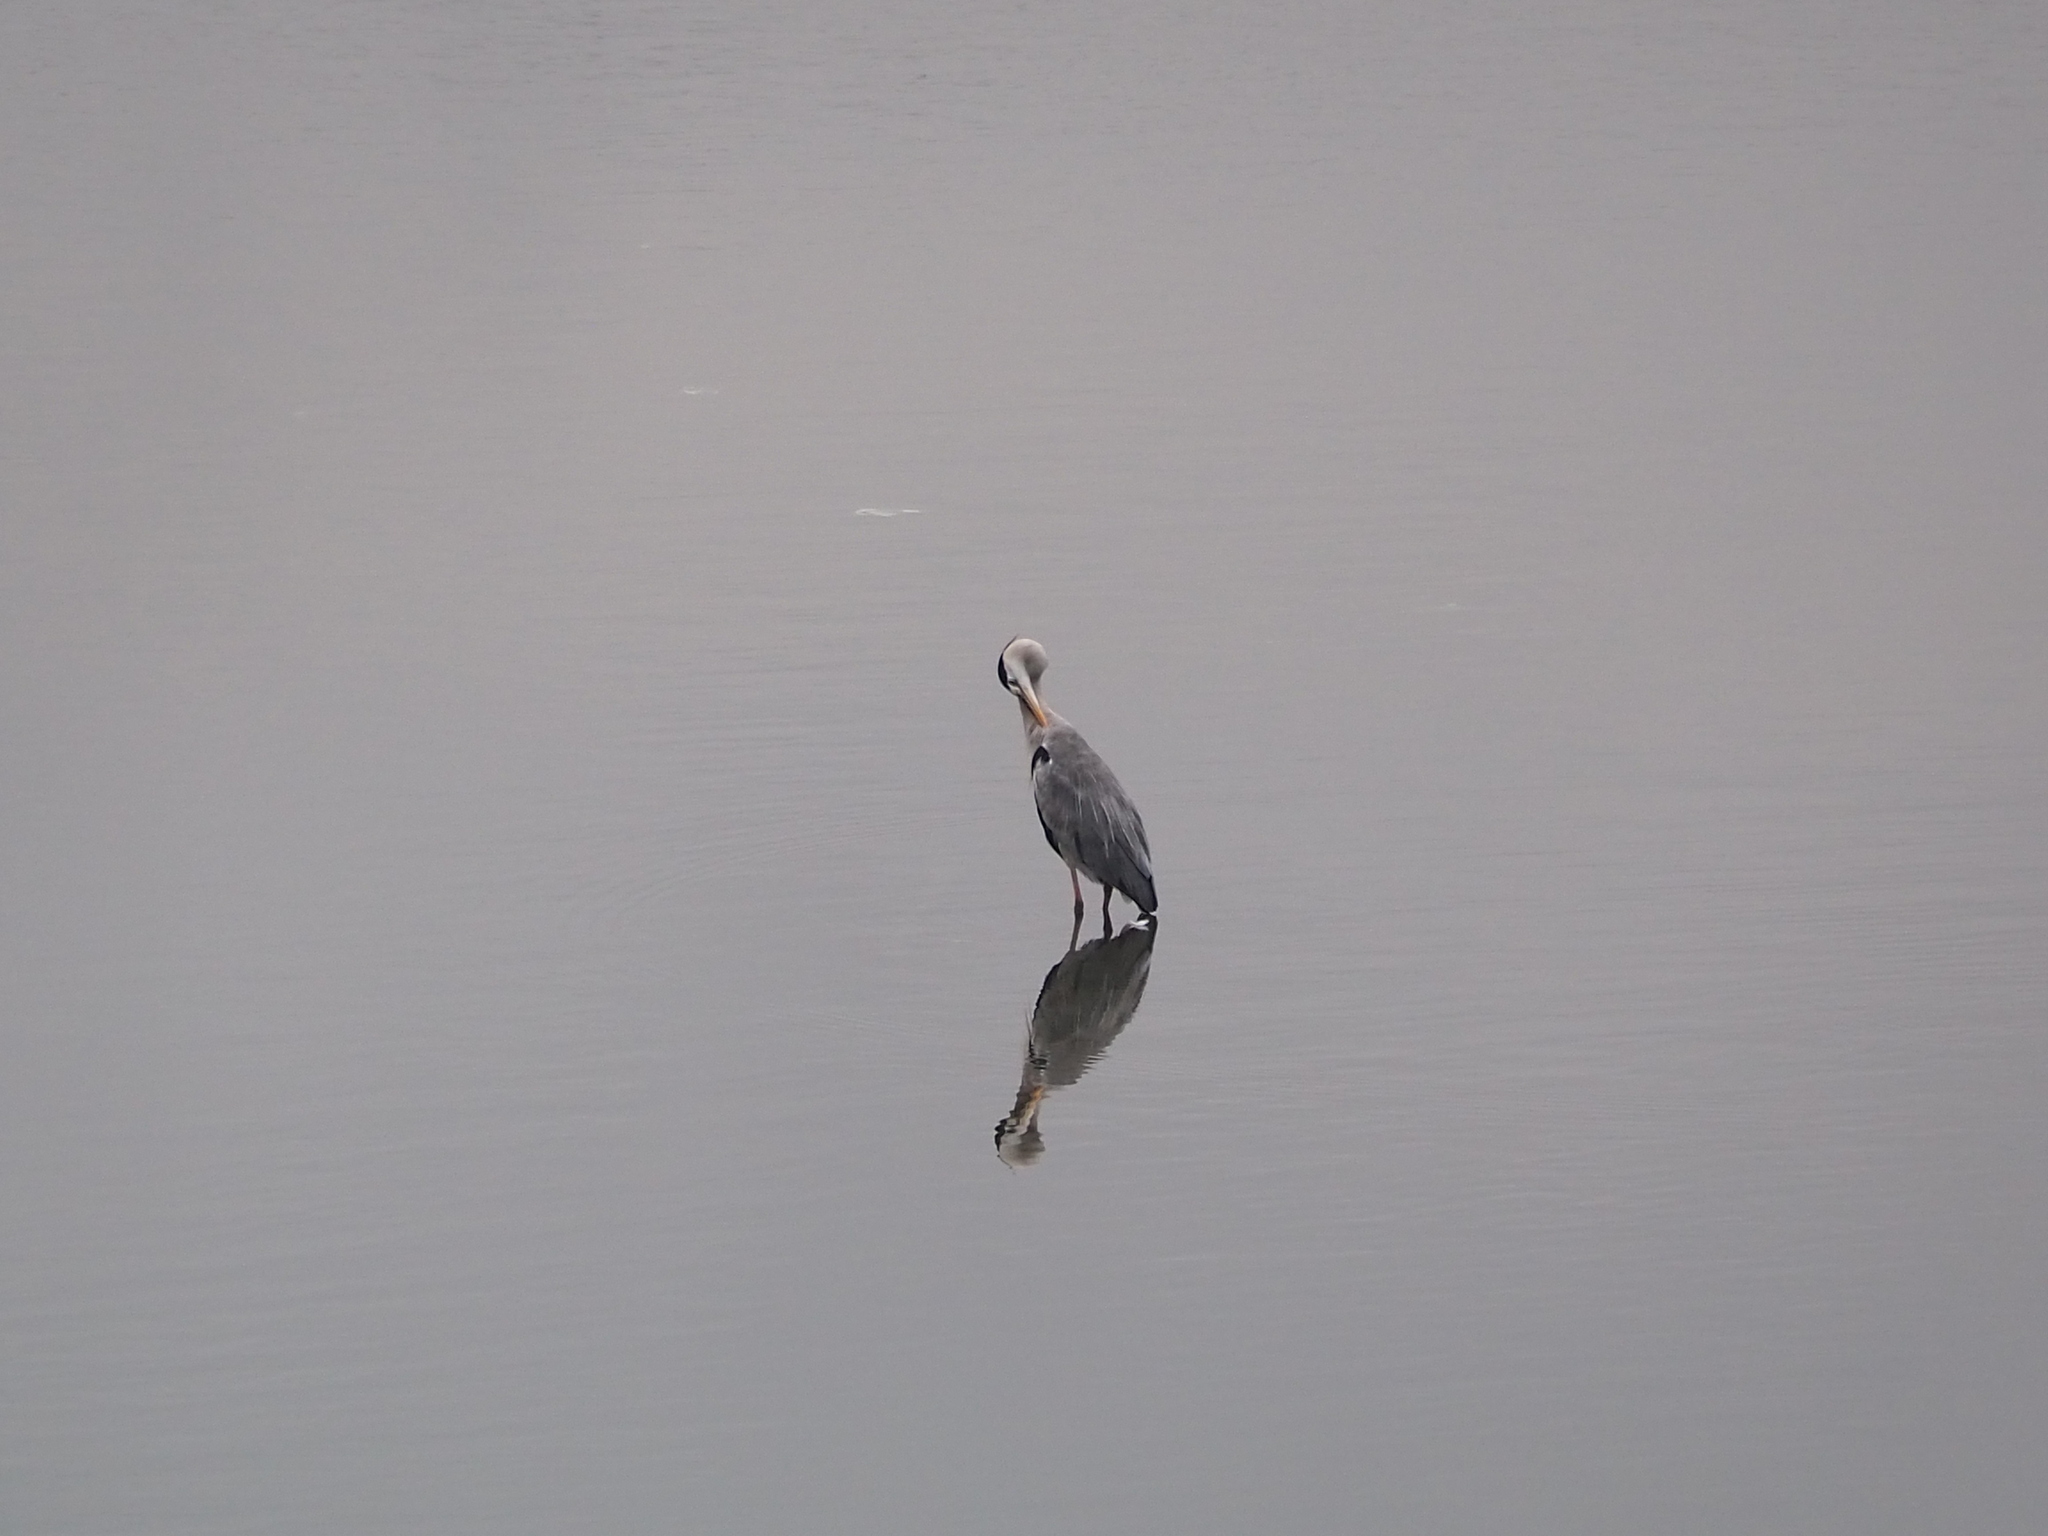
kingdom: Animalia
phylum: Chordata
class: Aves
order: Pelecaniformes
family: Ardeidae
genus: Ardea
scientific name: Ardea cinerea
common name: Grey heron
